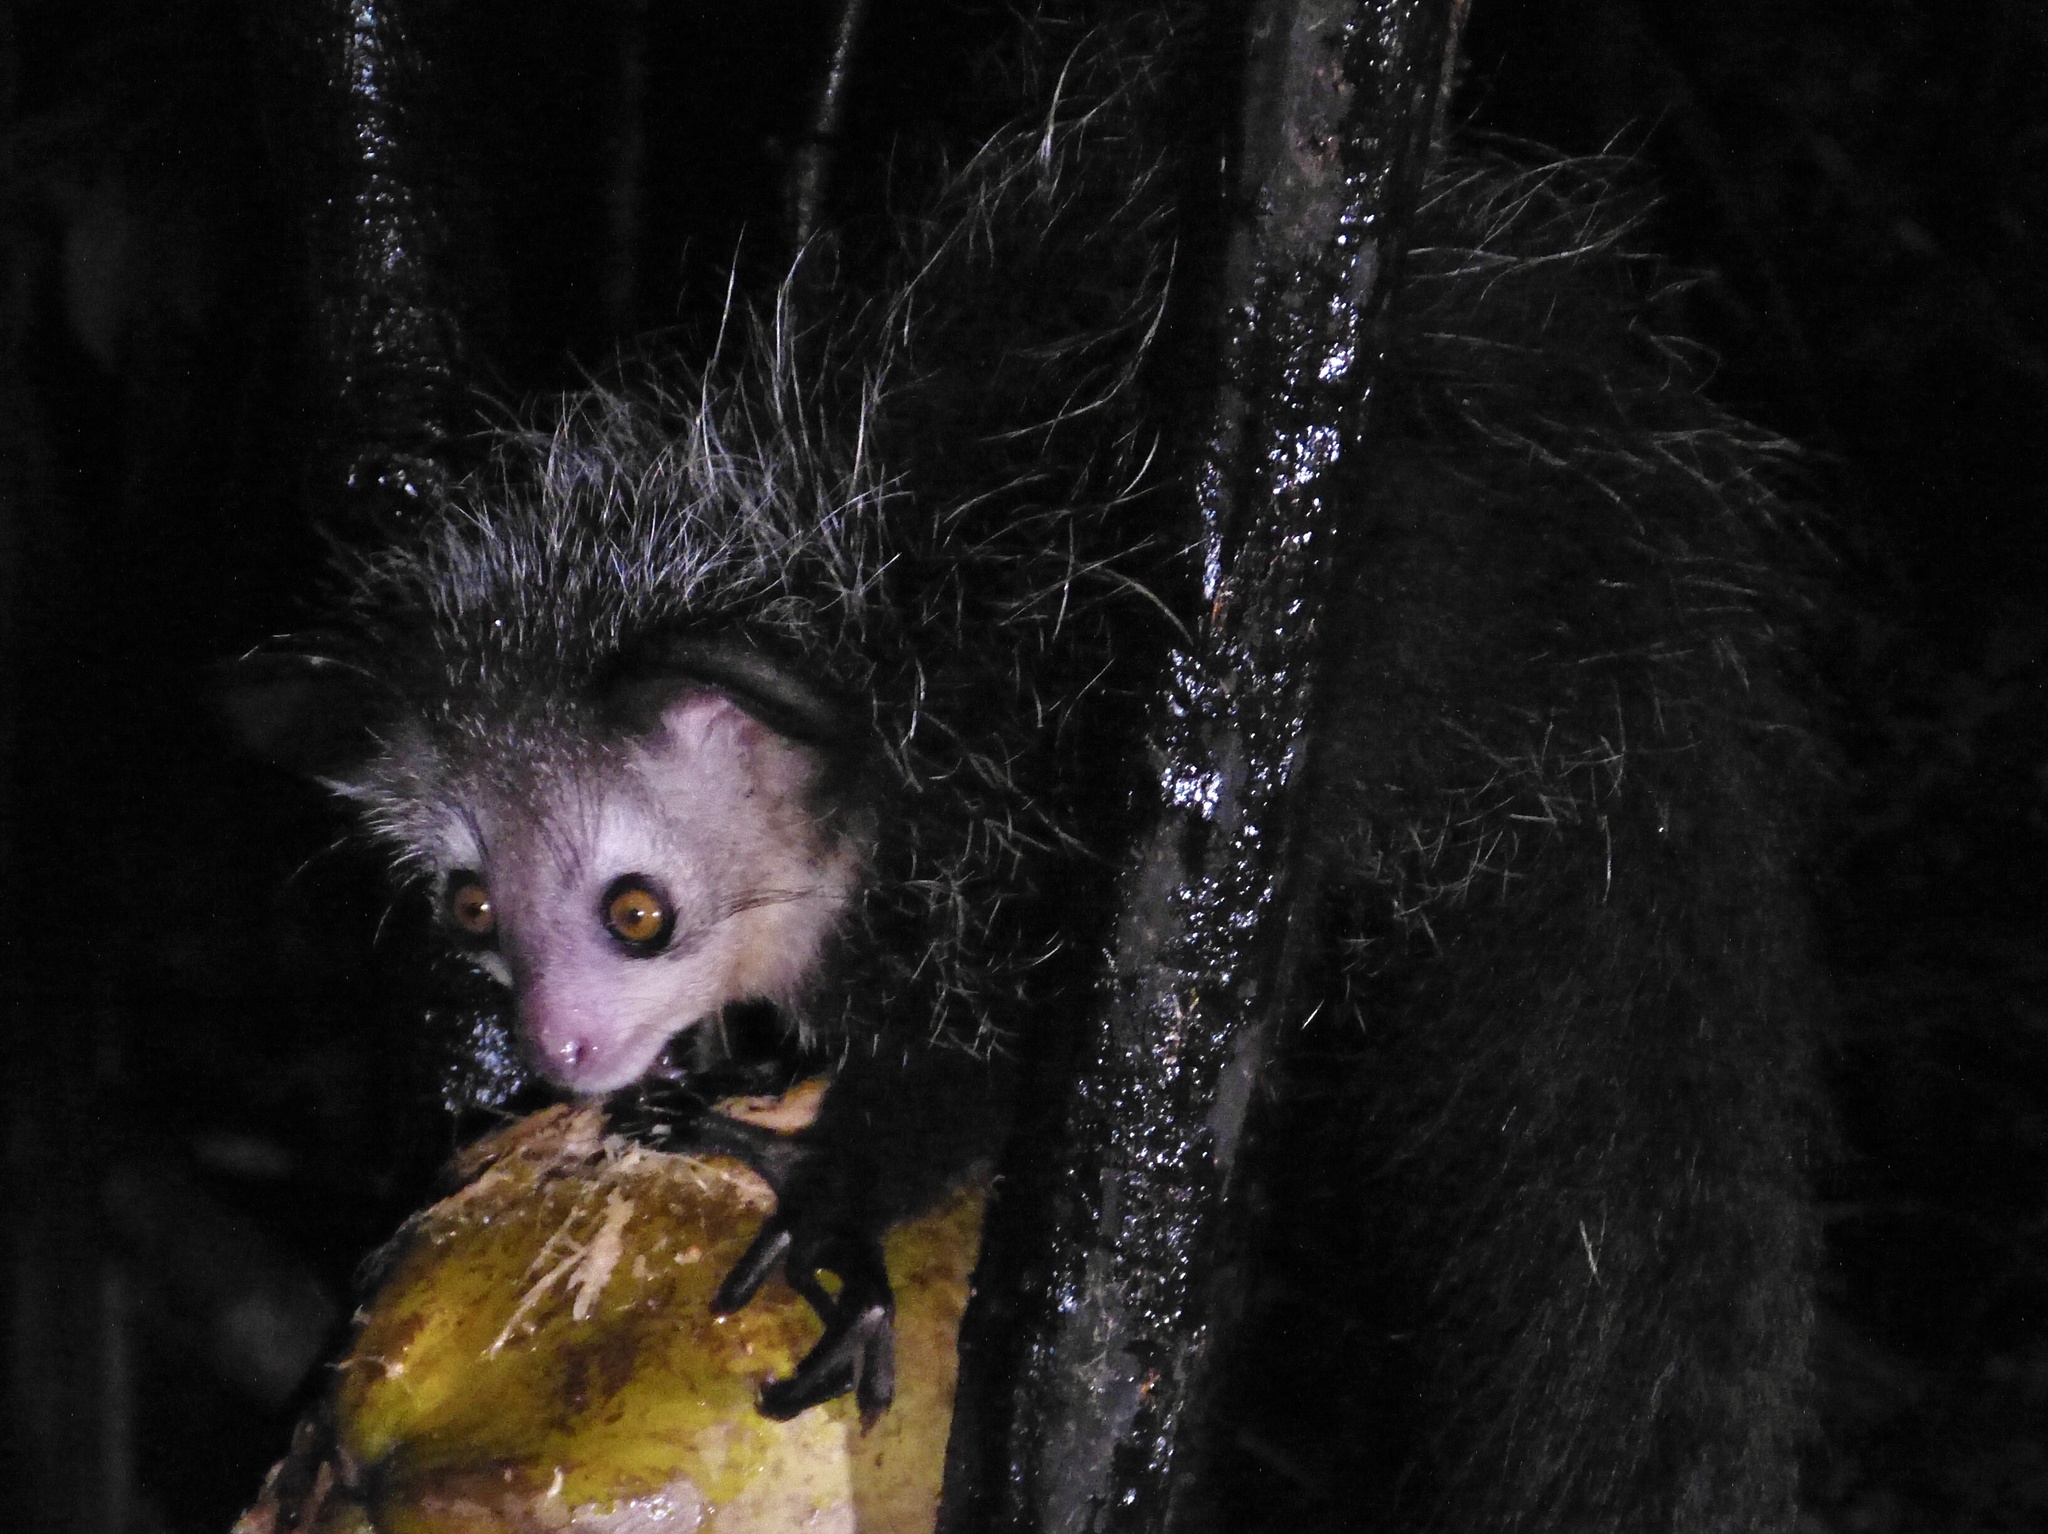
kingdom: Animalia
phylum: Chordata
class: Mammalia
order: Primates
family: Daubentoniidae
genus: Daubentonia
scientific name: Daubentonia madagascariensis
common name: Aye-aye
